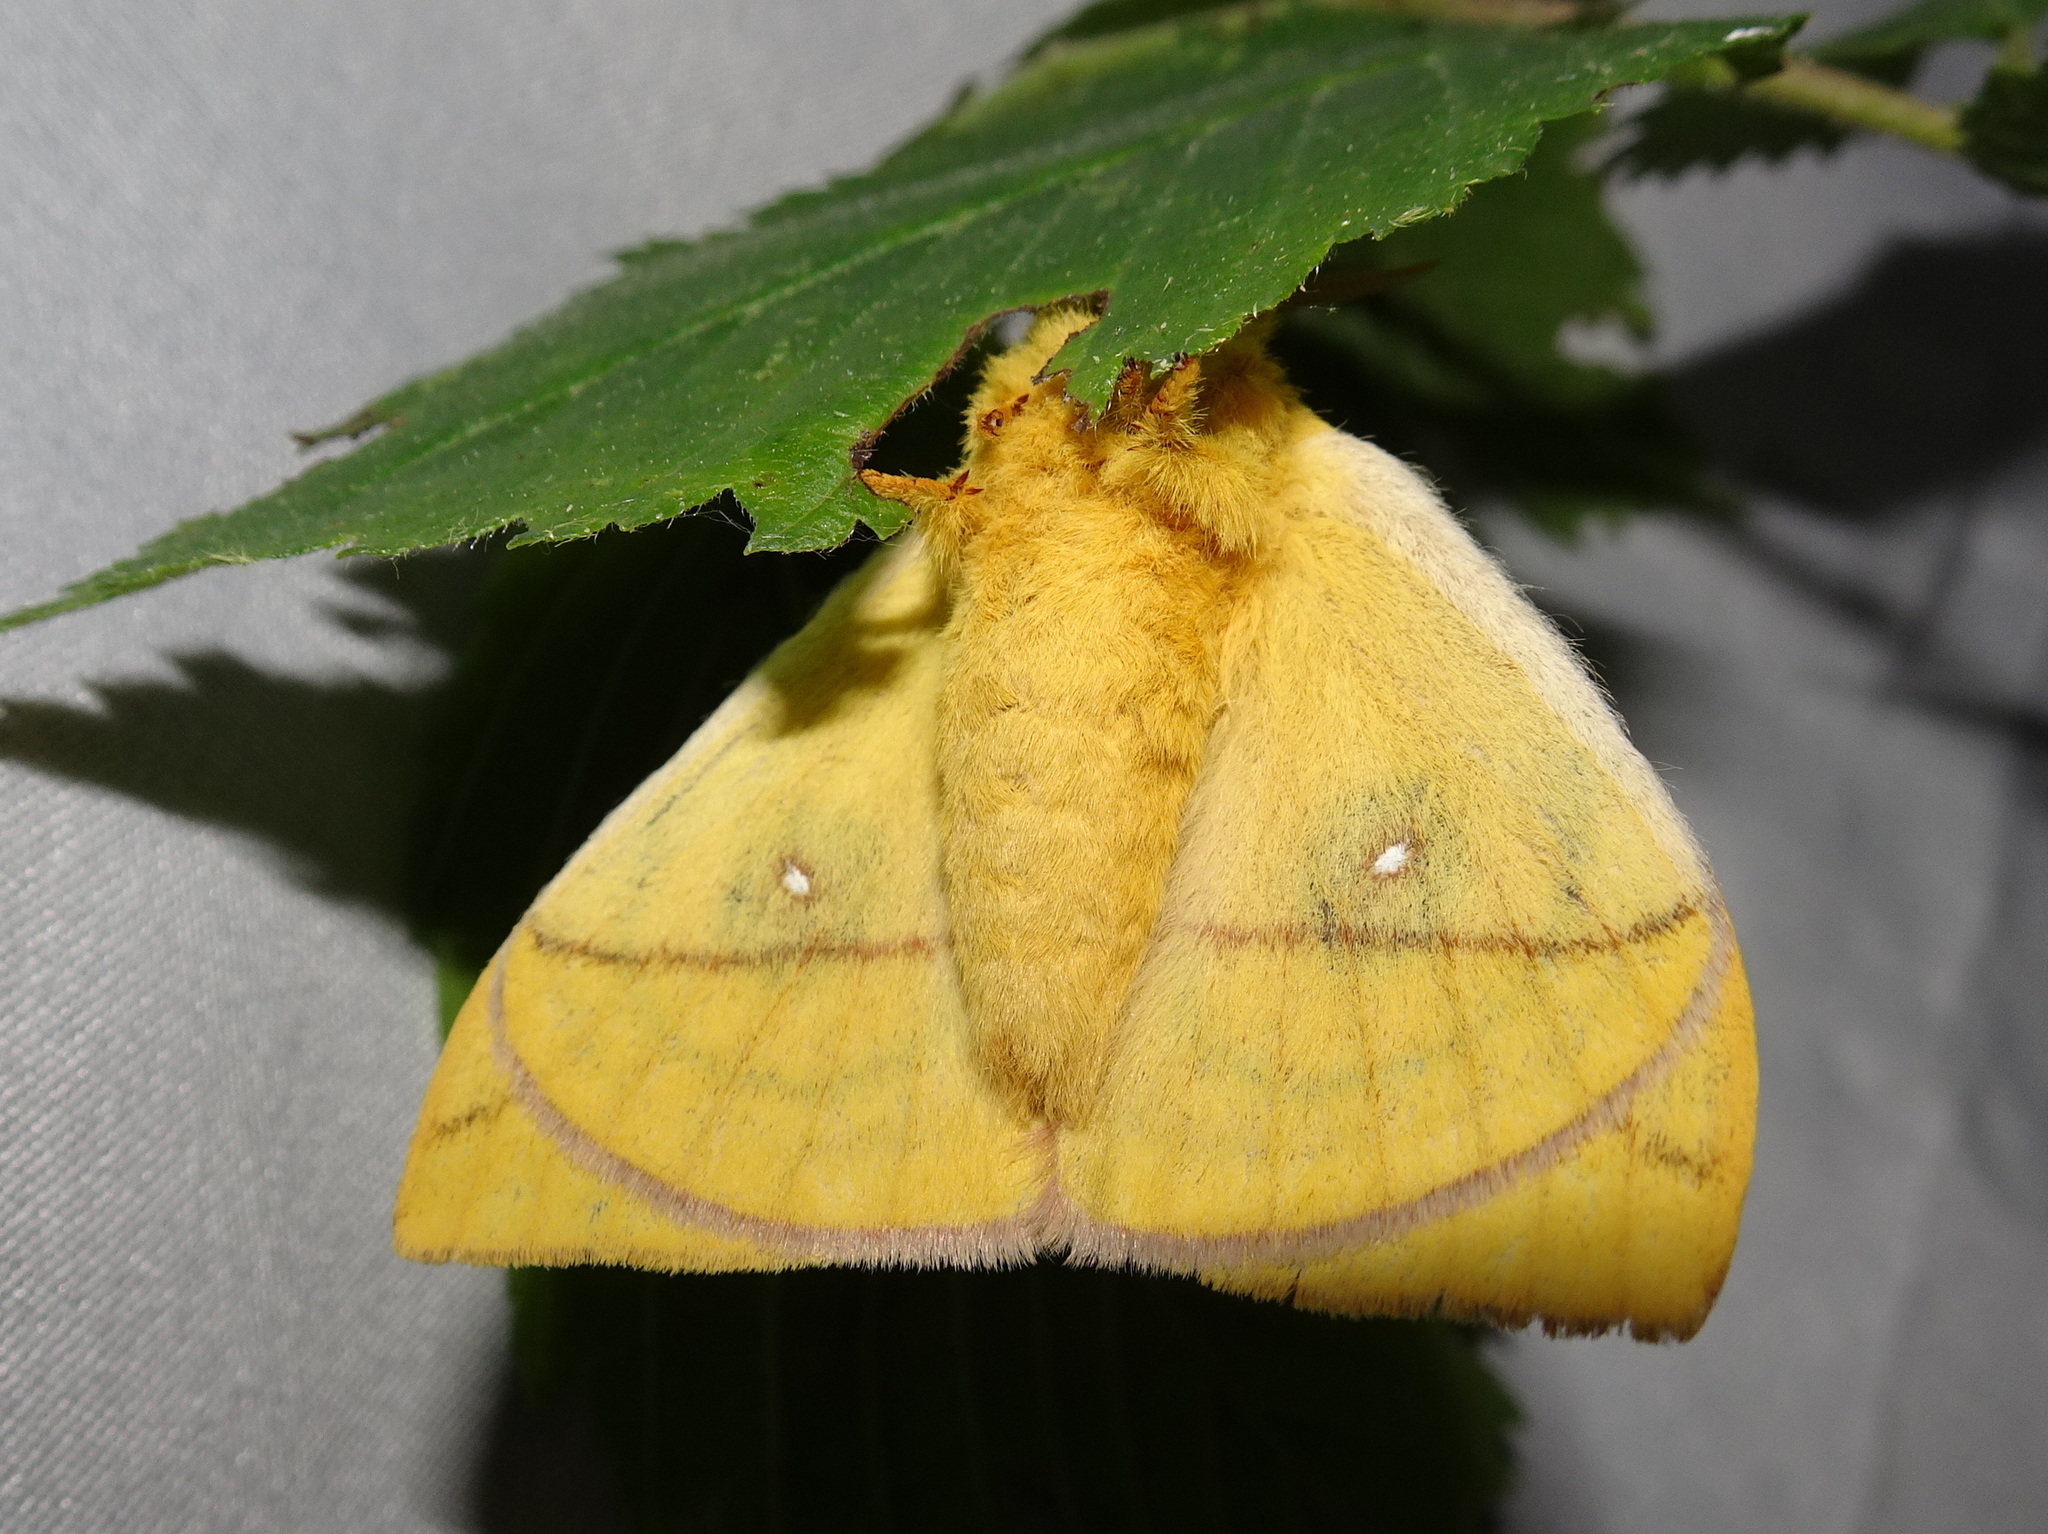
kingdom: Animalia
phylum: Arthropoda
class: Insecta
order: Lepidoptera
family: Saturniidae
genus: Automeris
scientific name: Automeris io
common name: Io moth
